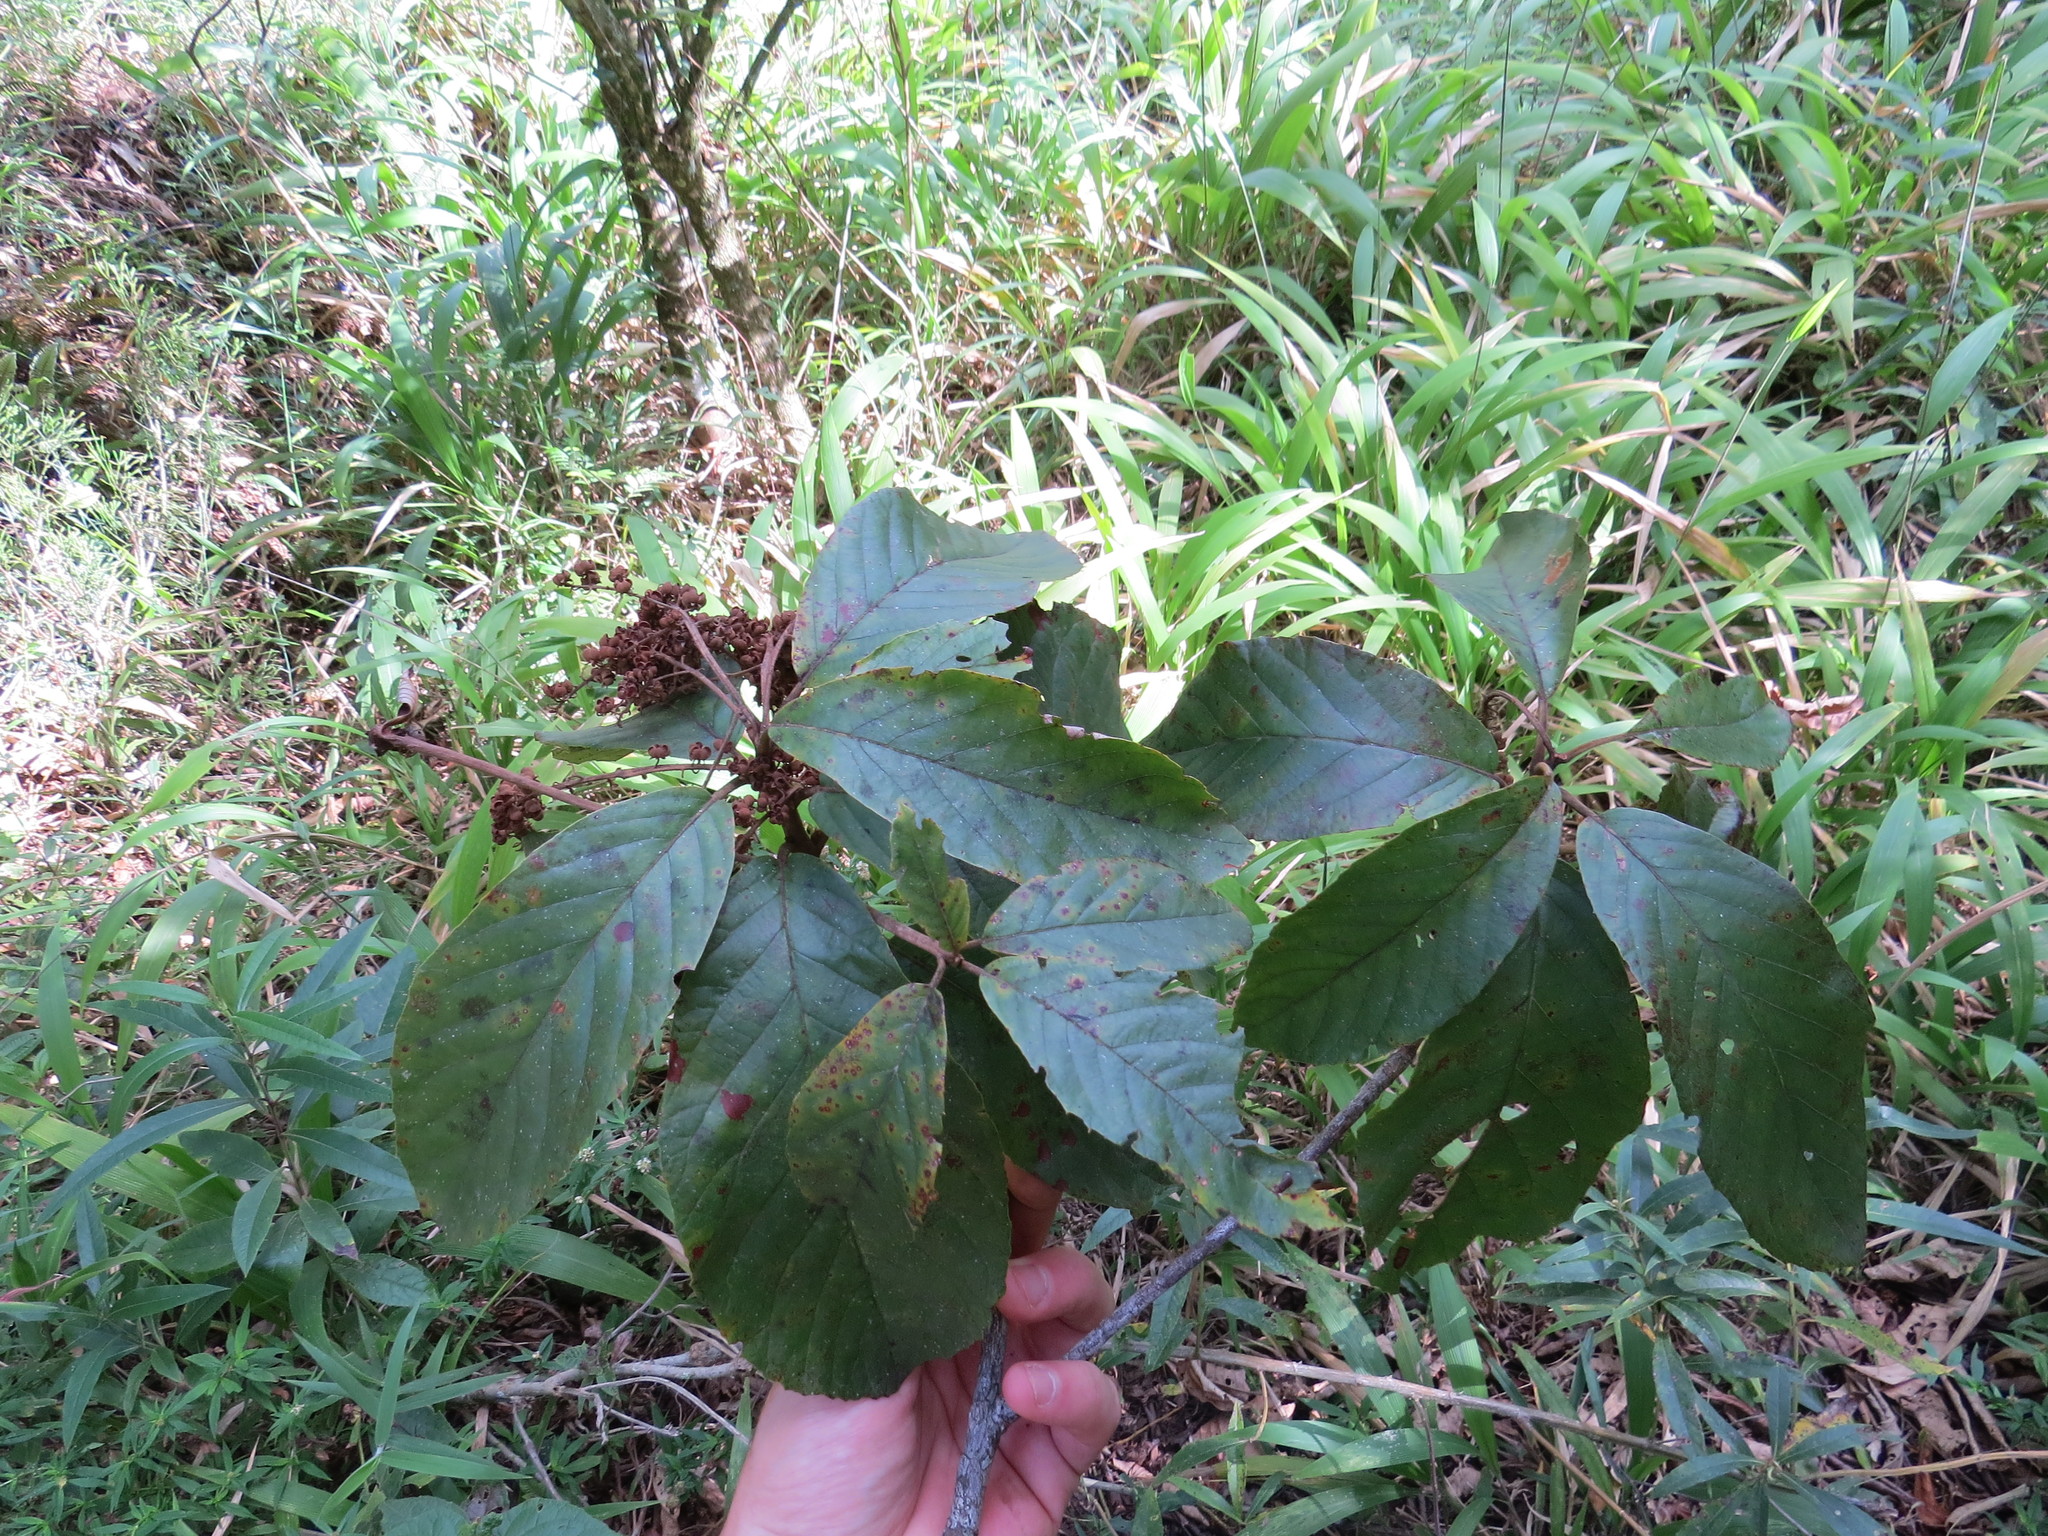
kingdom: Plantae
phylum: Tracheophyta
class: Magnoliopsida
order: Ericales
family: Clethraceae
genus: Clethra
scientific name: Clethra scabra
